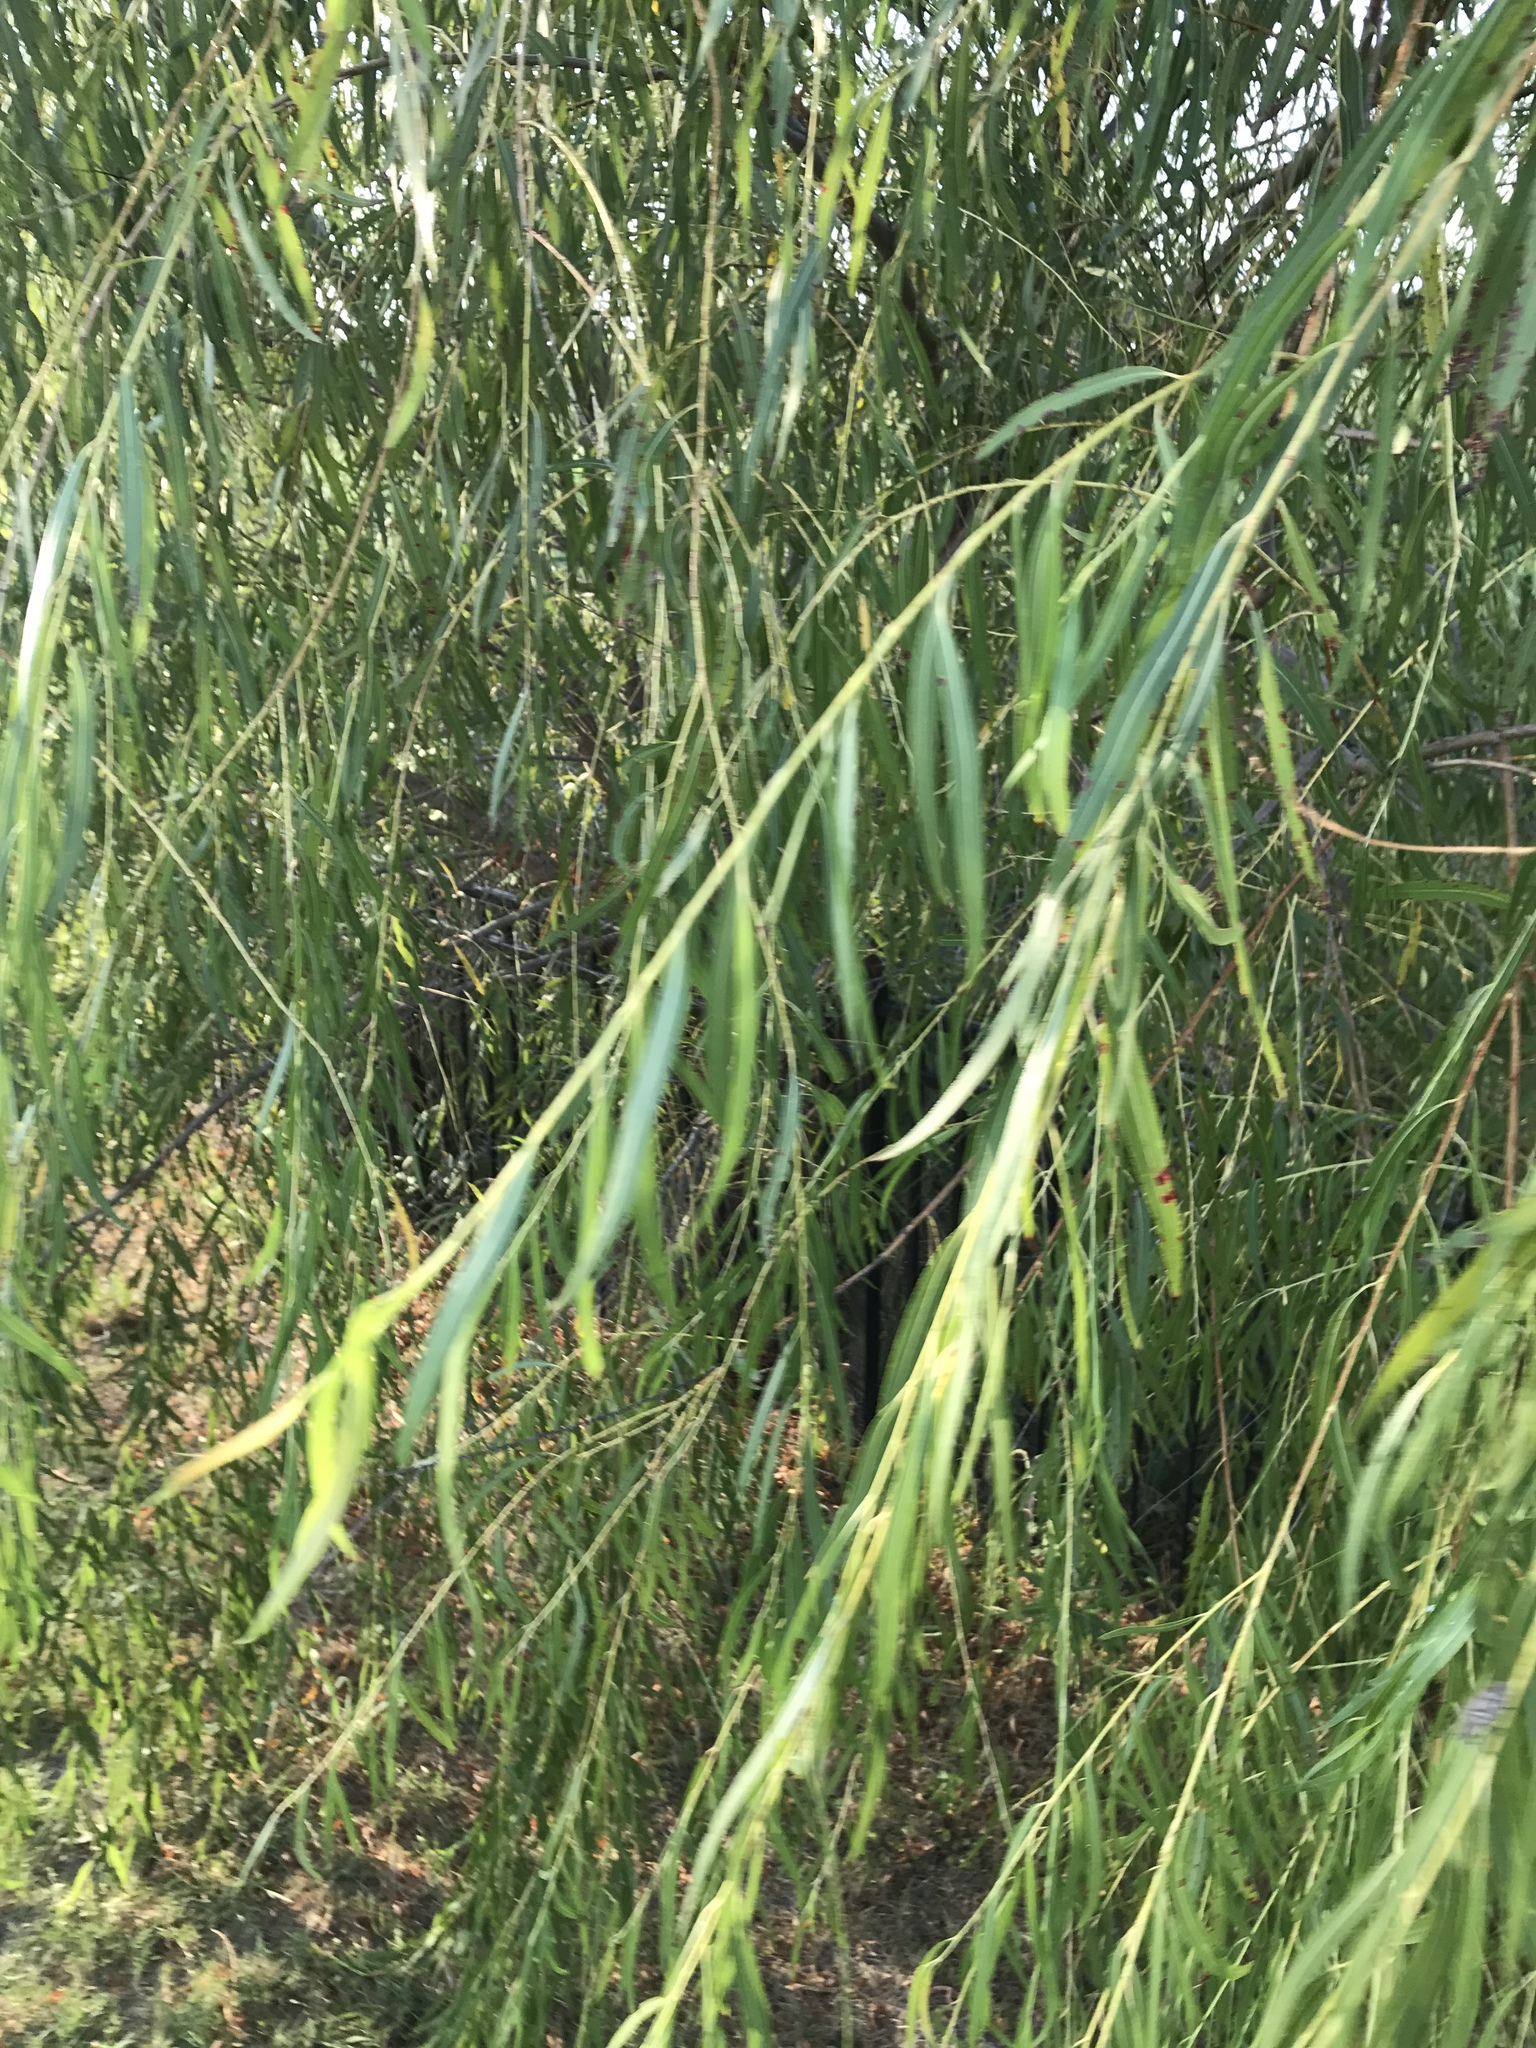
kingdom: Plantae
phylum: Tracheophyta
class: Magnoliopsida
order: Malpighiales
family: Salicaceae
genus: Salix
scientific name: Salix nigra
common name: Black willow
